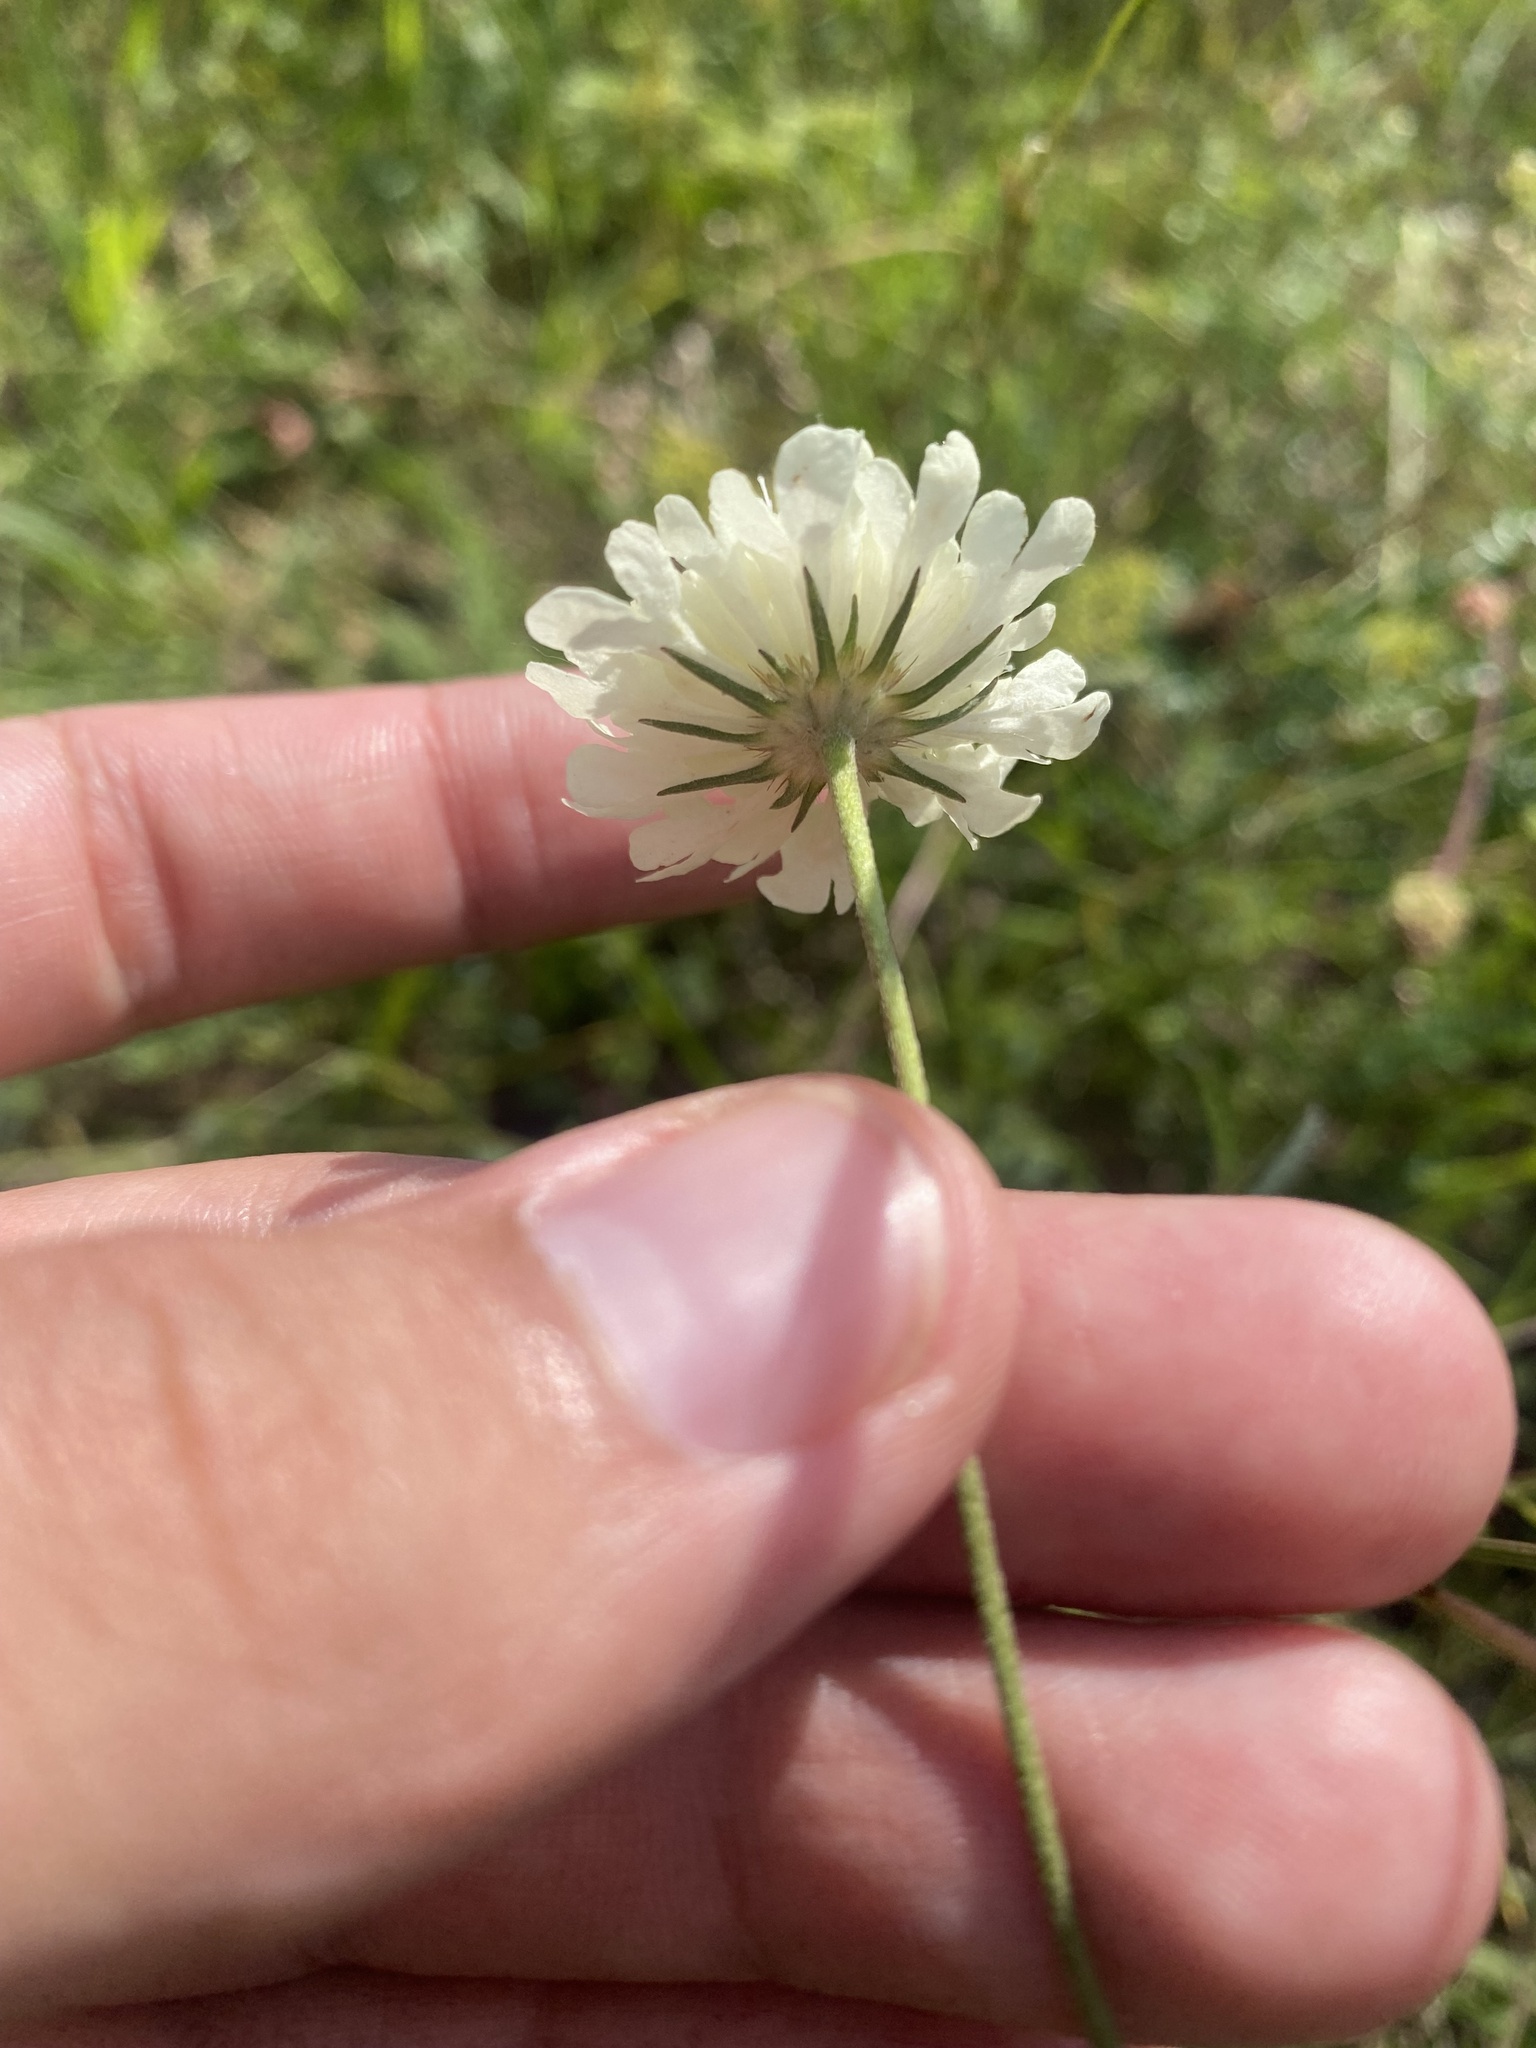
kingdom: Plantae
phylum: Tracheophyta
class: Magnoliopsida
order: Dipsacales
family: Caprifoliaceae
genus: Scabiosa
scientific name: Scabiosa ochroleuca
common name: Cream pincushions
